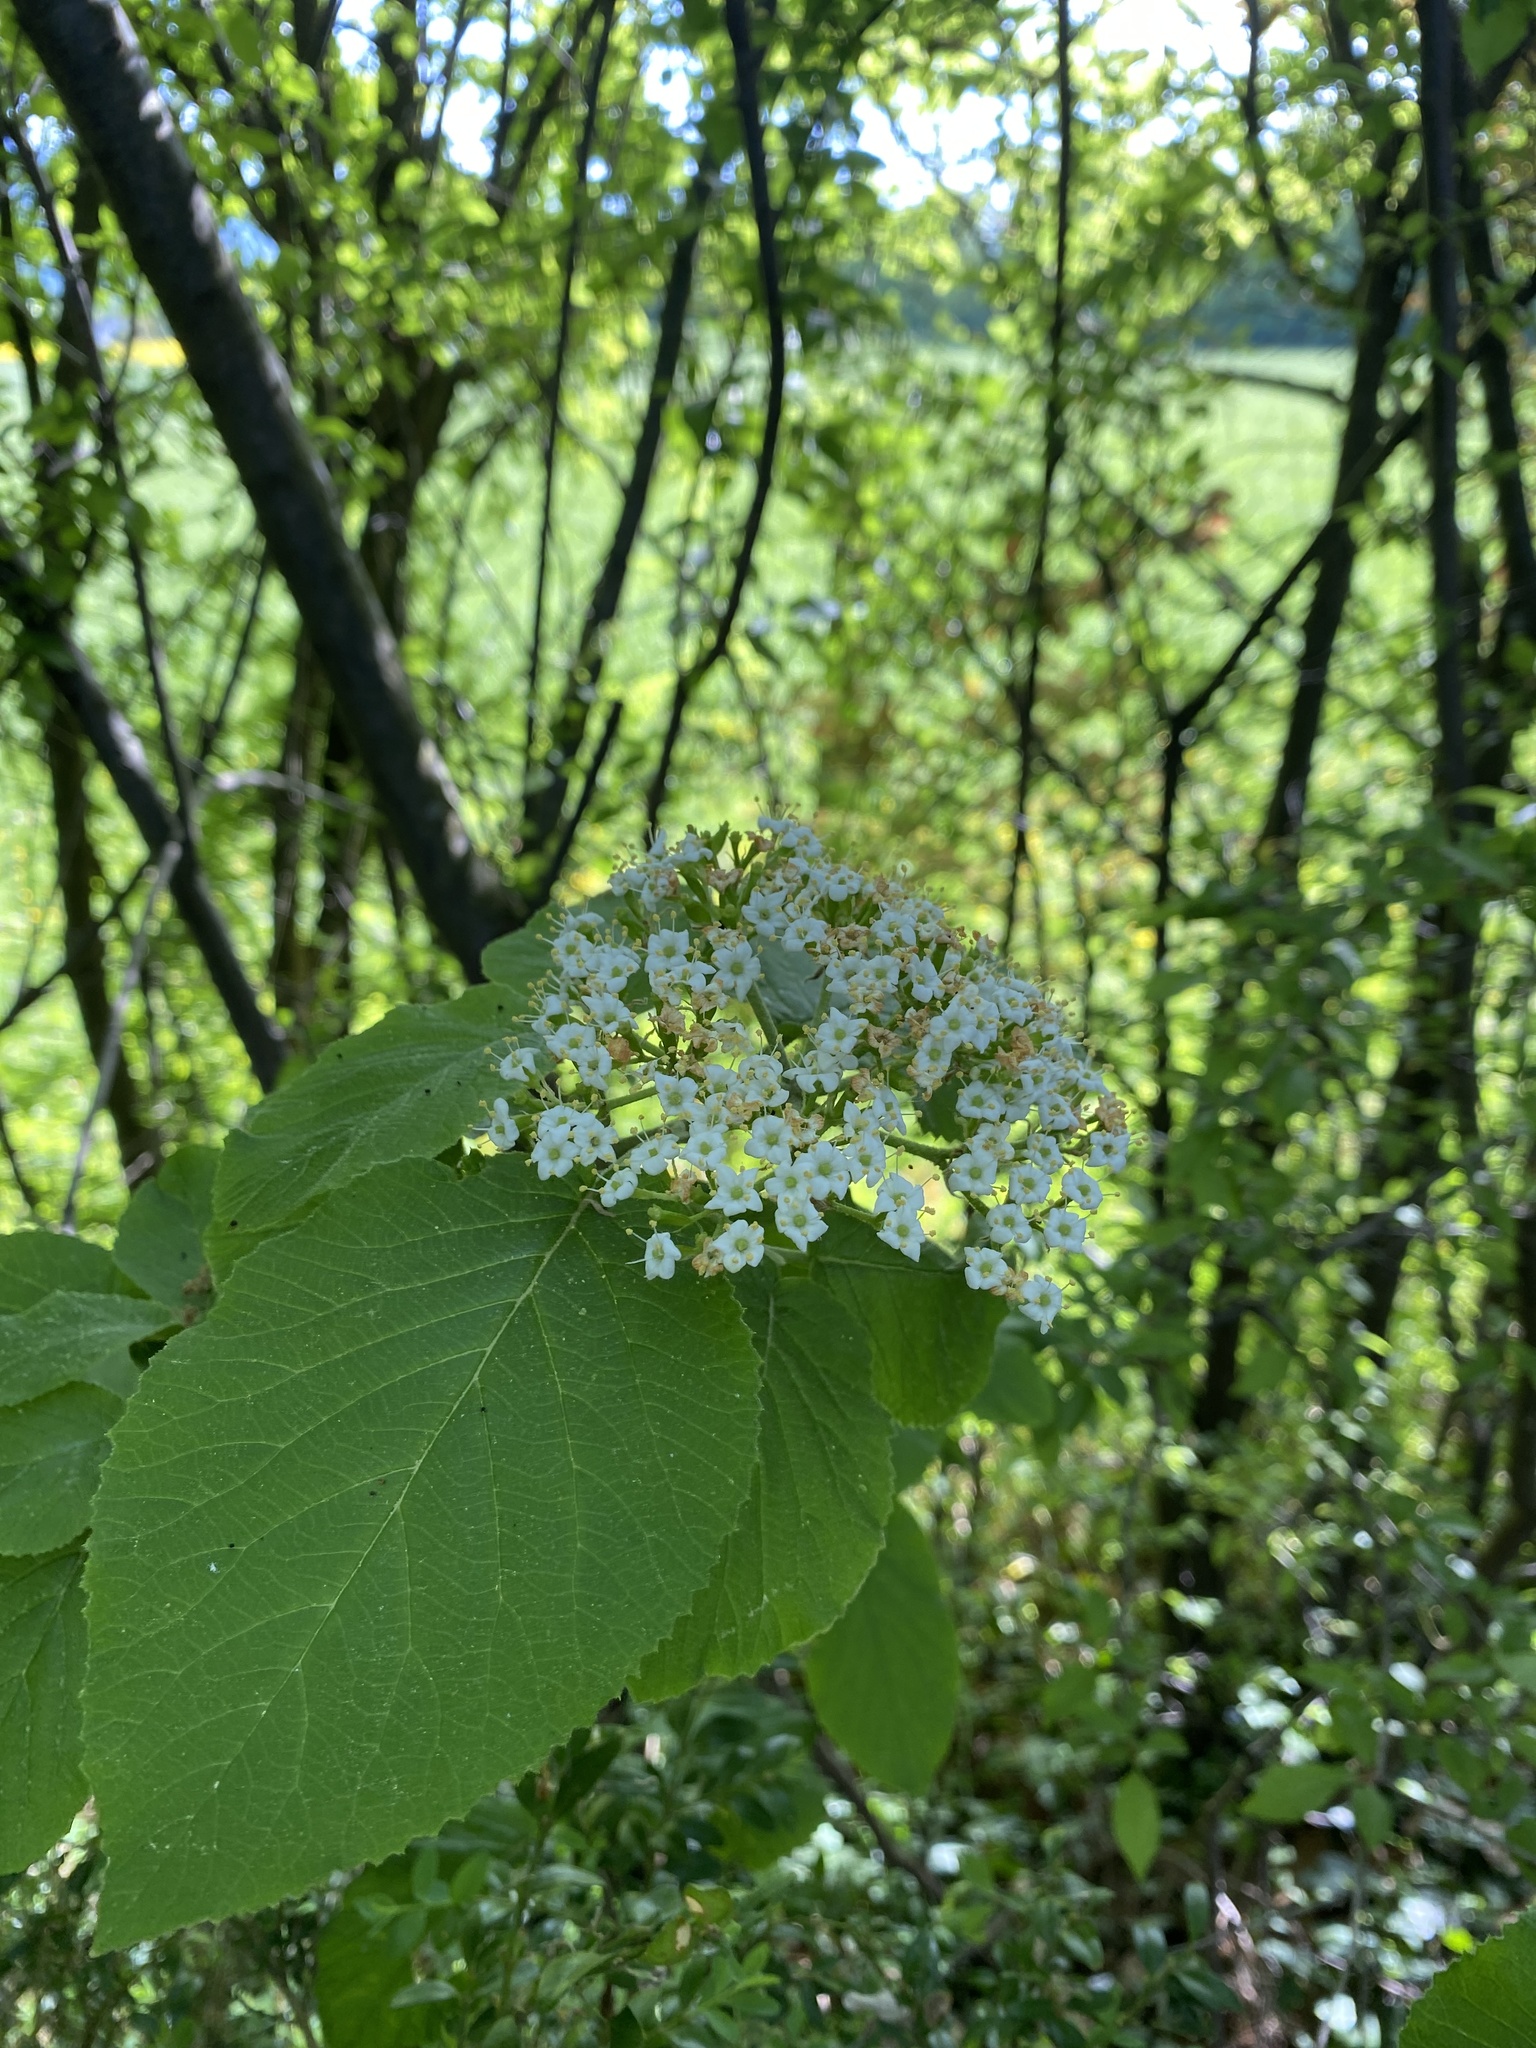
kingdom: Plantae
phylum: Tracheophyta
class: Magnoliopsida
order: Dipsacales
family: Viburnaceae
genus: Viburnum
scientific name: Viburnum lantana
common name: Wayfaring tree
